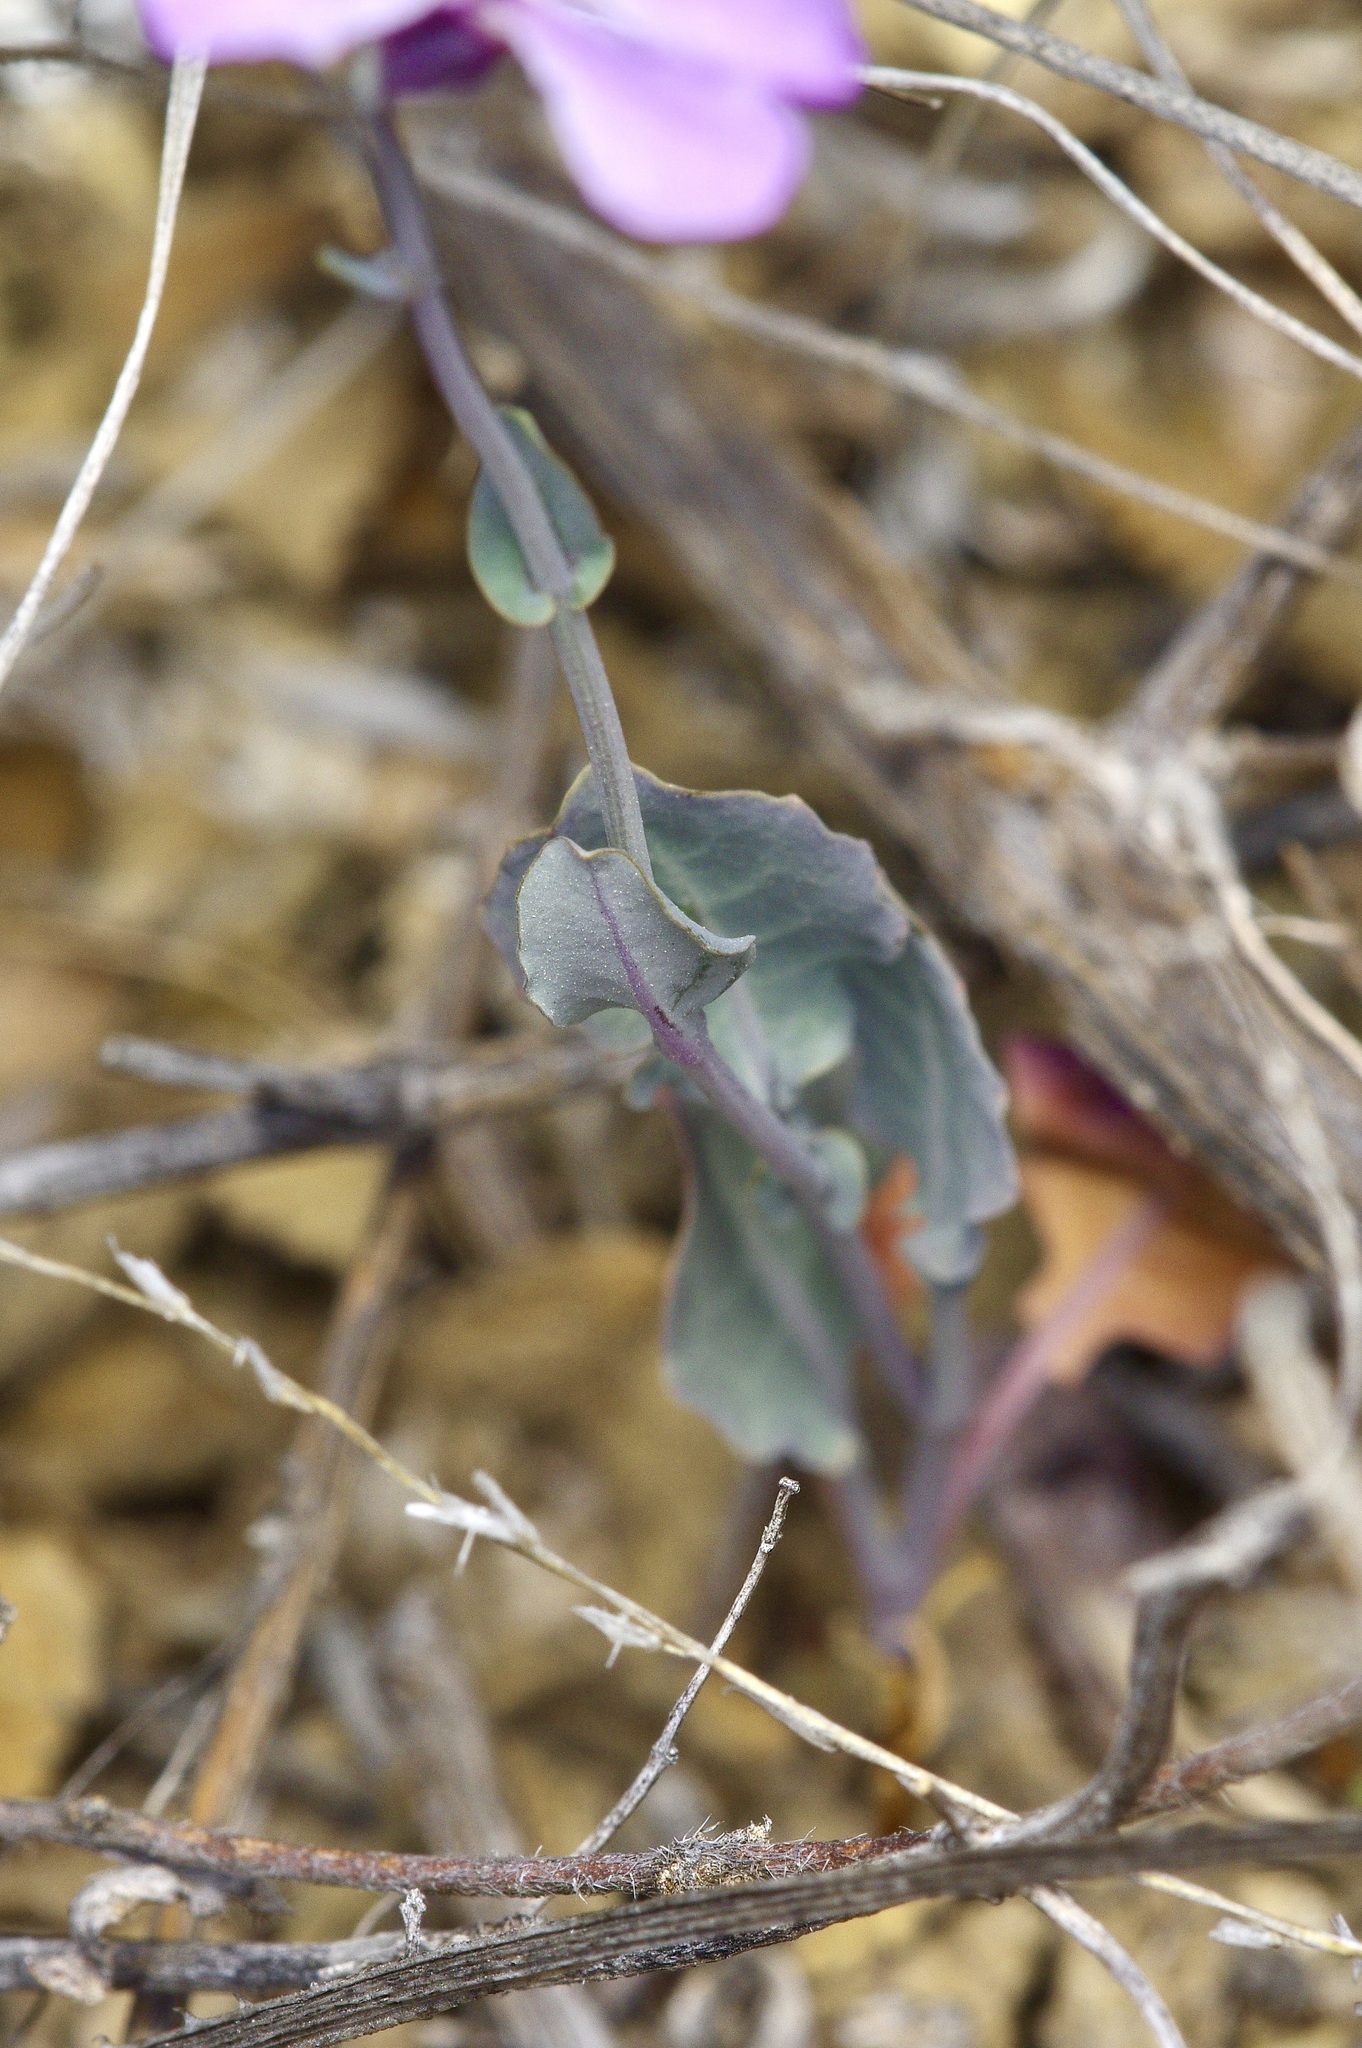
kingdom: Plantae
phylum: Tracheophyta
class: Magnoliopsida
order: Brassicales
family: Brassicaceae
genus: Streptanthus
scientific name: Streptanthus platycarpus
